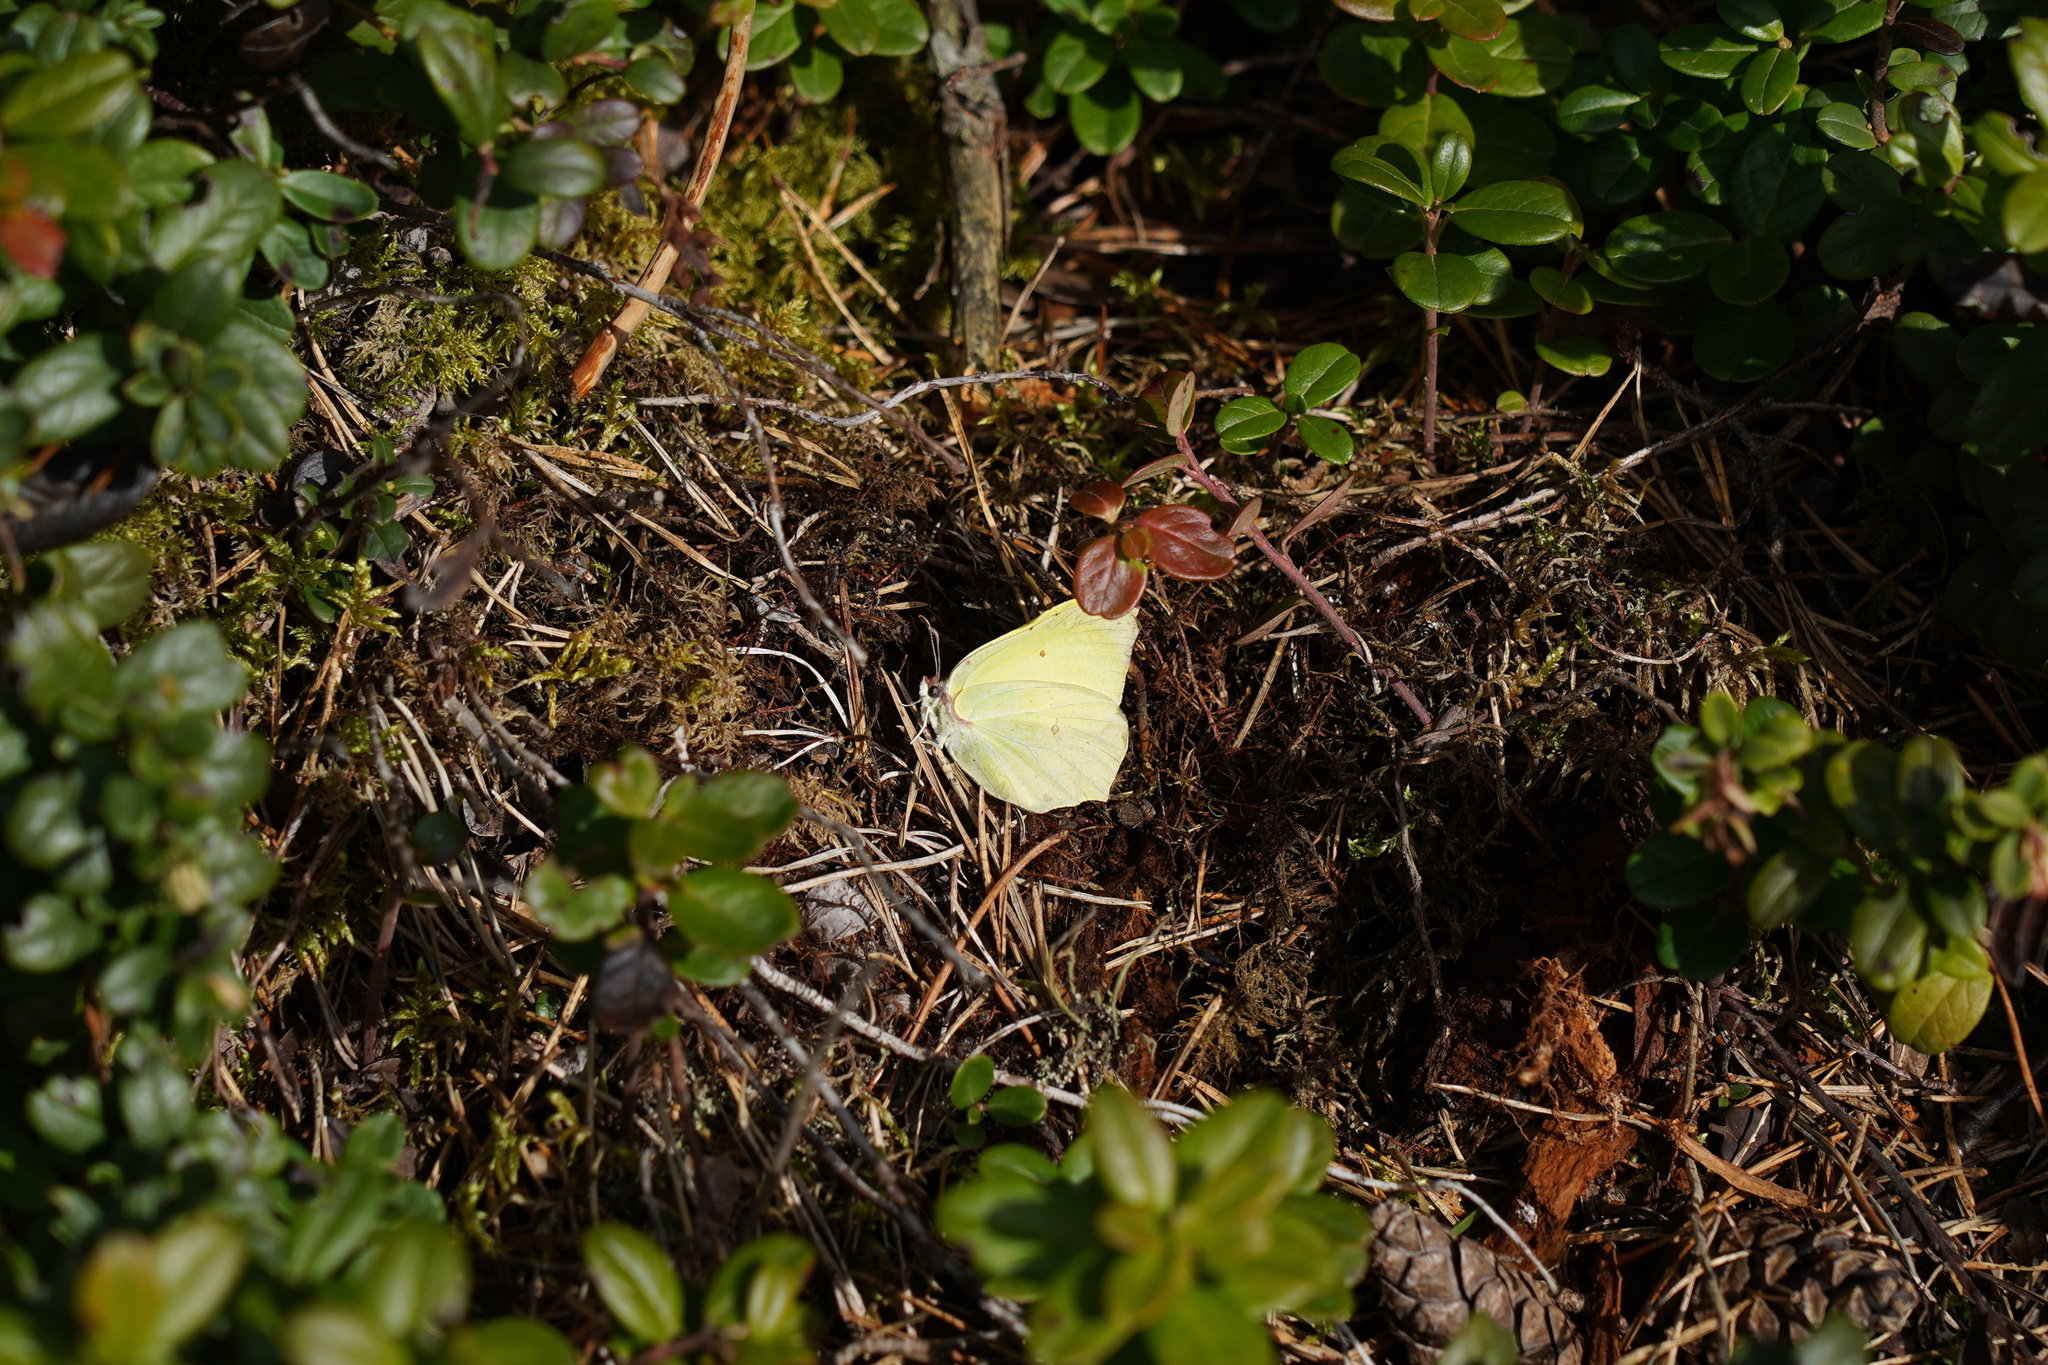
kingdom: Animalia
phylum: Arthropoda
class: Insecta
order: Lepidoptera
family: Pieridae
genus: Gonepteryx
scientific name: Gonepteryx rhamni
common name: Brimstone
